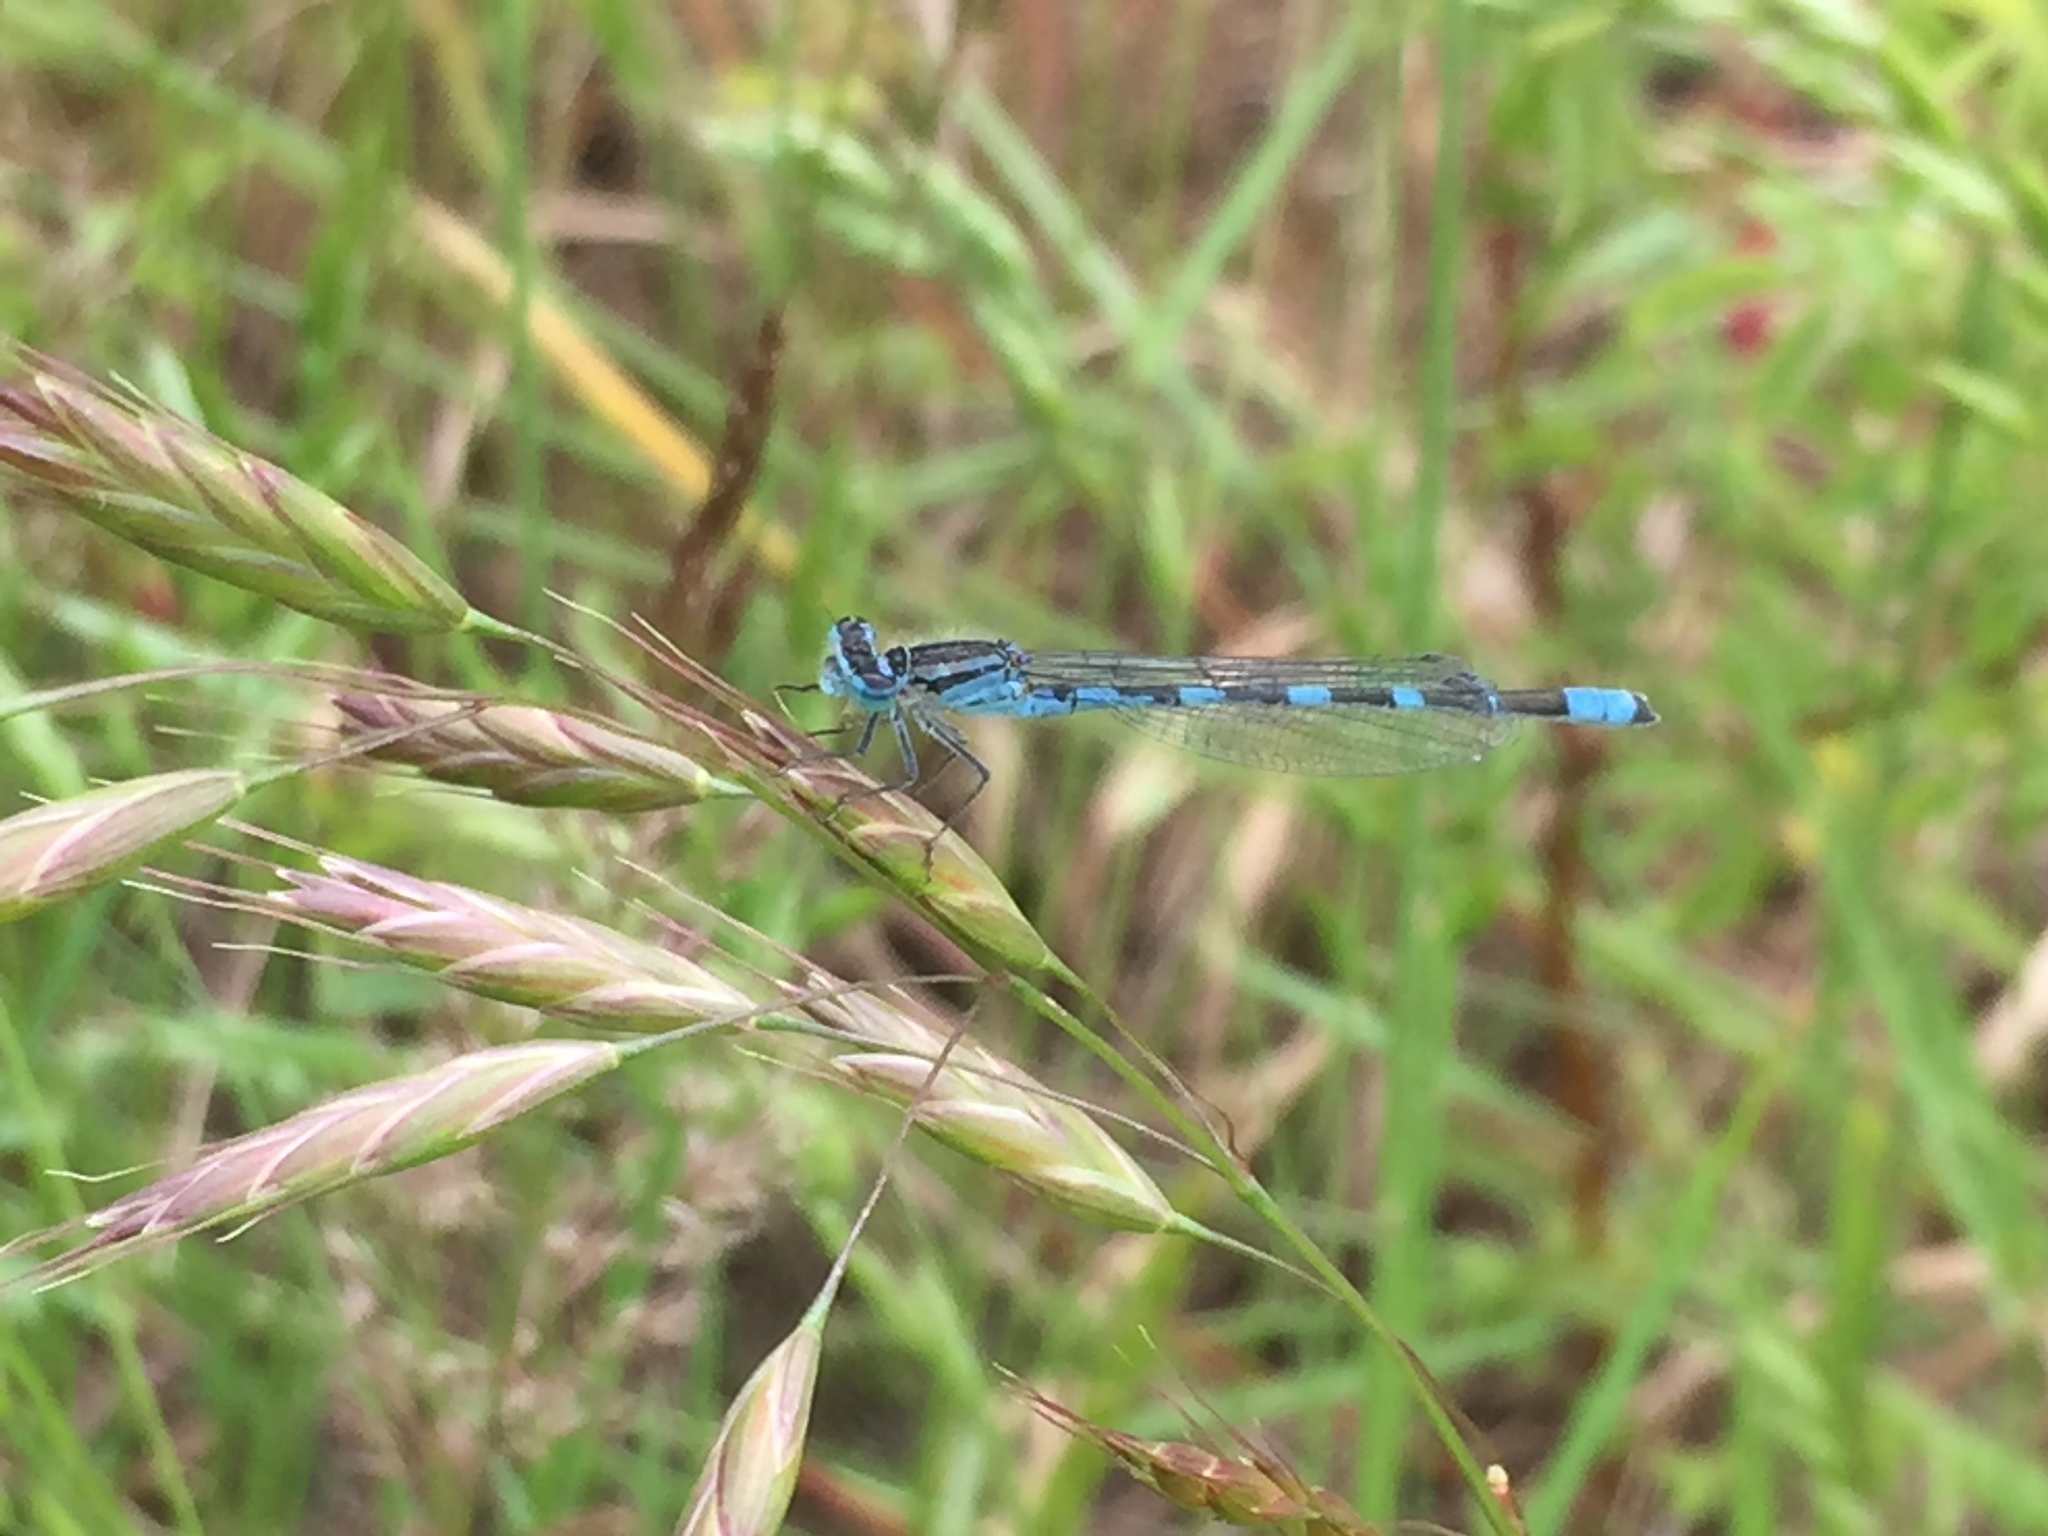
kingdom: Animalia
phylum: Arthropoda
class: Insecta
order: Odonata
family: Coenagrionidae
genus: Enallagma
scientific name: Enallagma carunculatum
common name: Tule bluet
